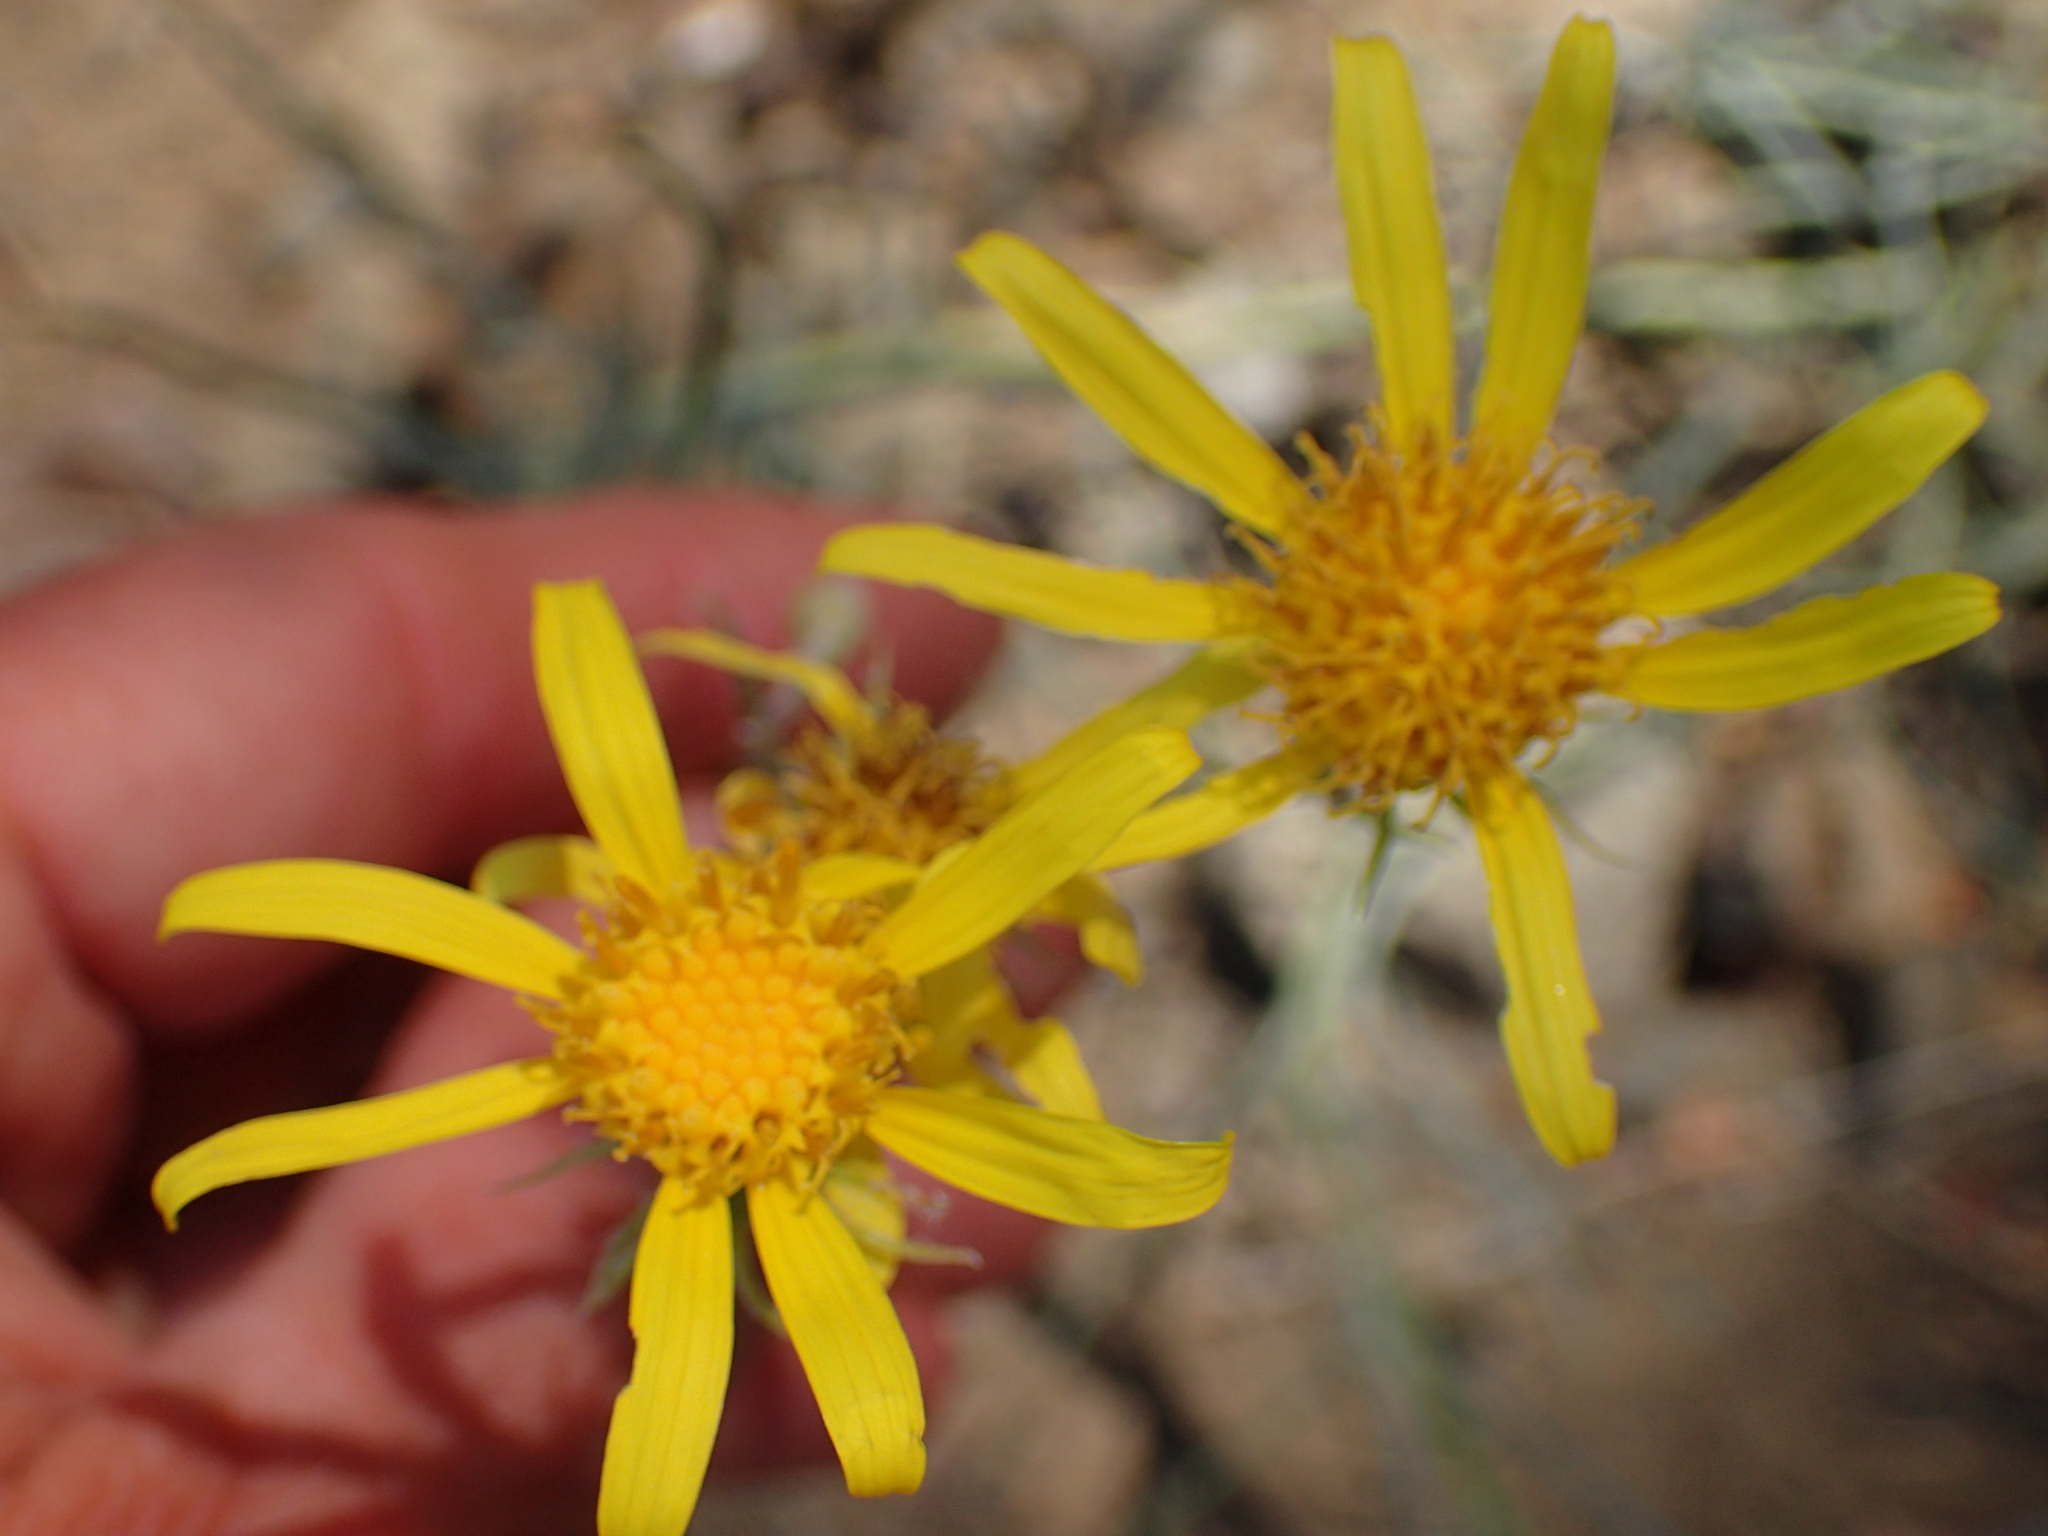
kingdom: Plantae
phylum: Tracheophyta
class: Magnoliopsida
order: Asterales
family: Asteraceae
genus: Senecio
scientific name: Senecio flaccidus
